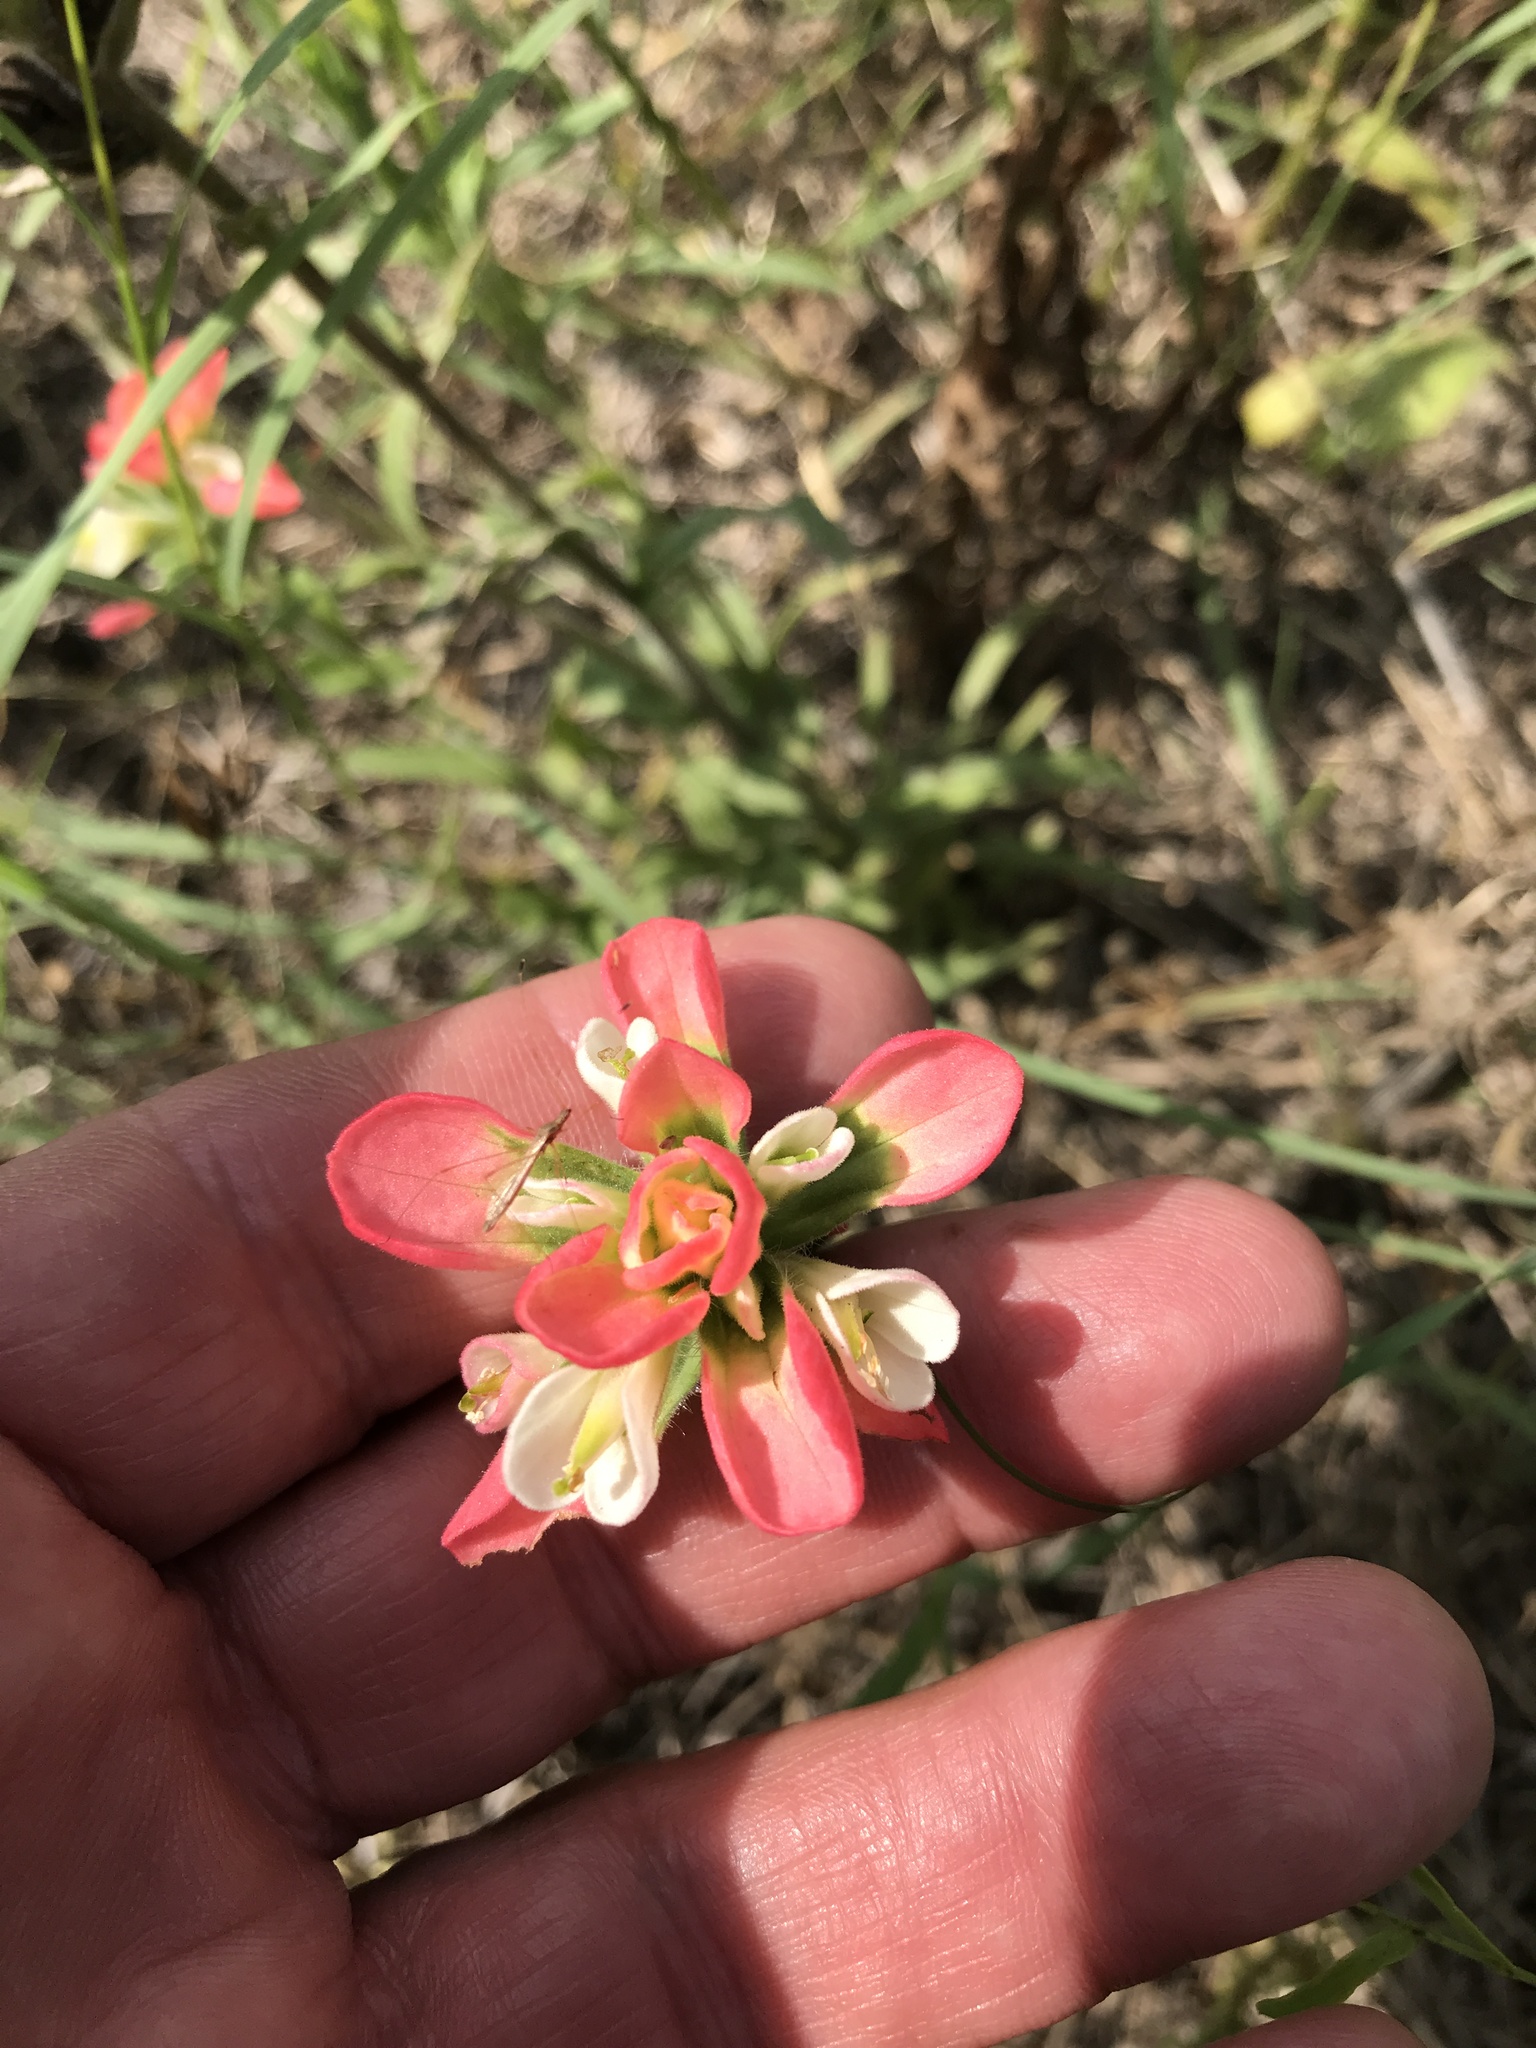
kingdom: Plantae
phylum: Tracheophyta
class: Magnoliopsida
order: Lamiales
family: Orobanchaceae
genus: Castilleja
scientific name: Castilleja indivisa
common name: Texas paintbrush
